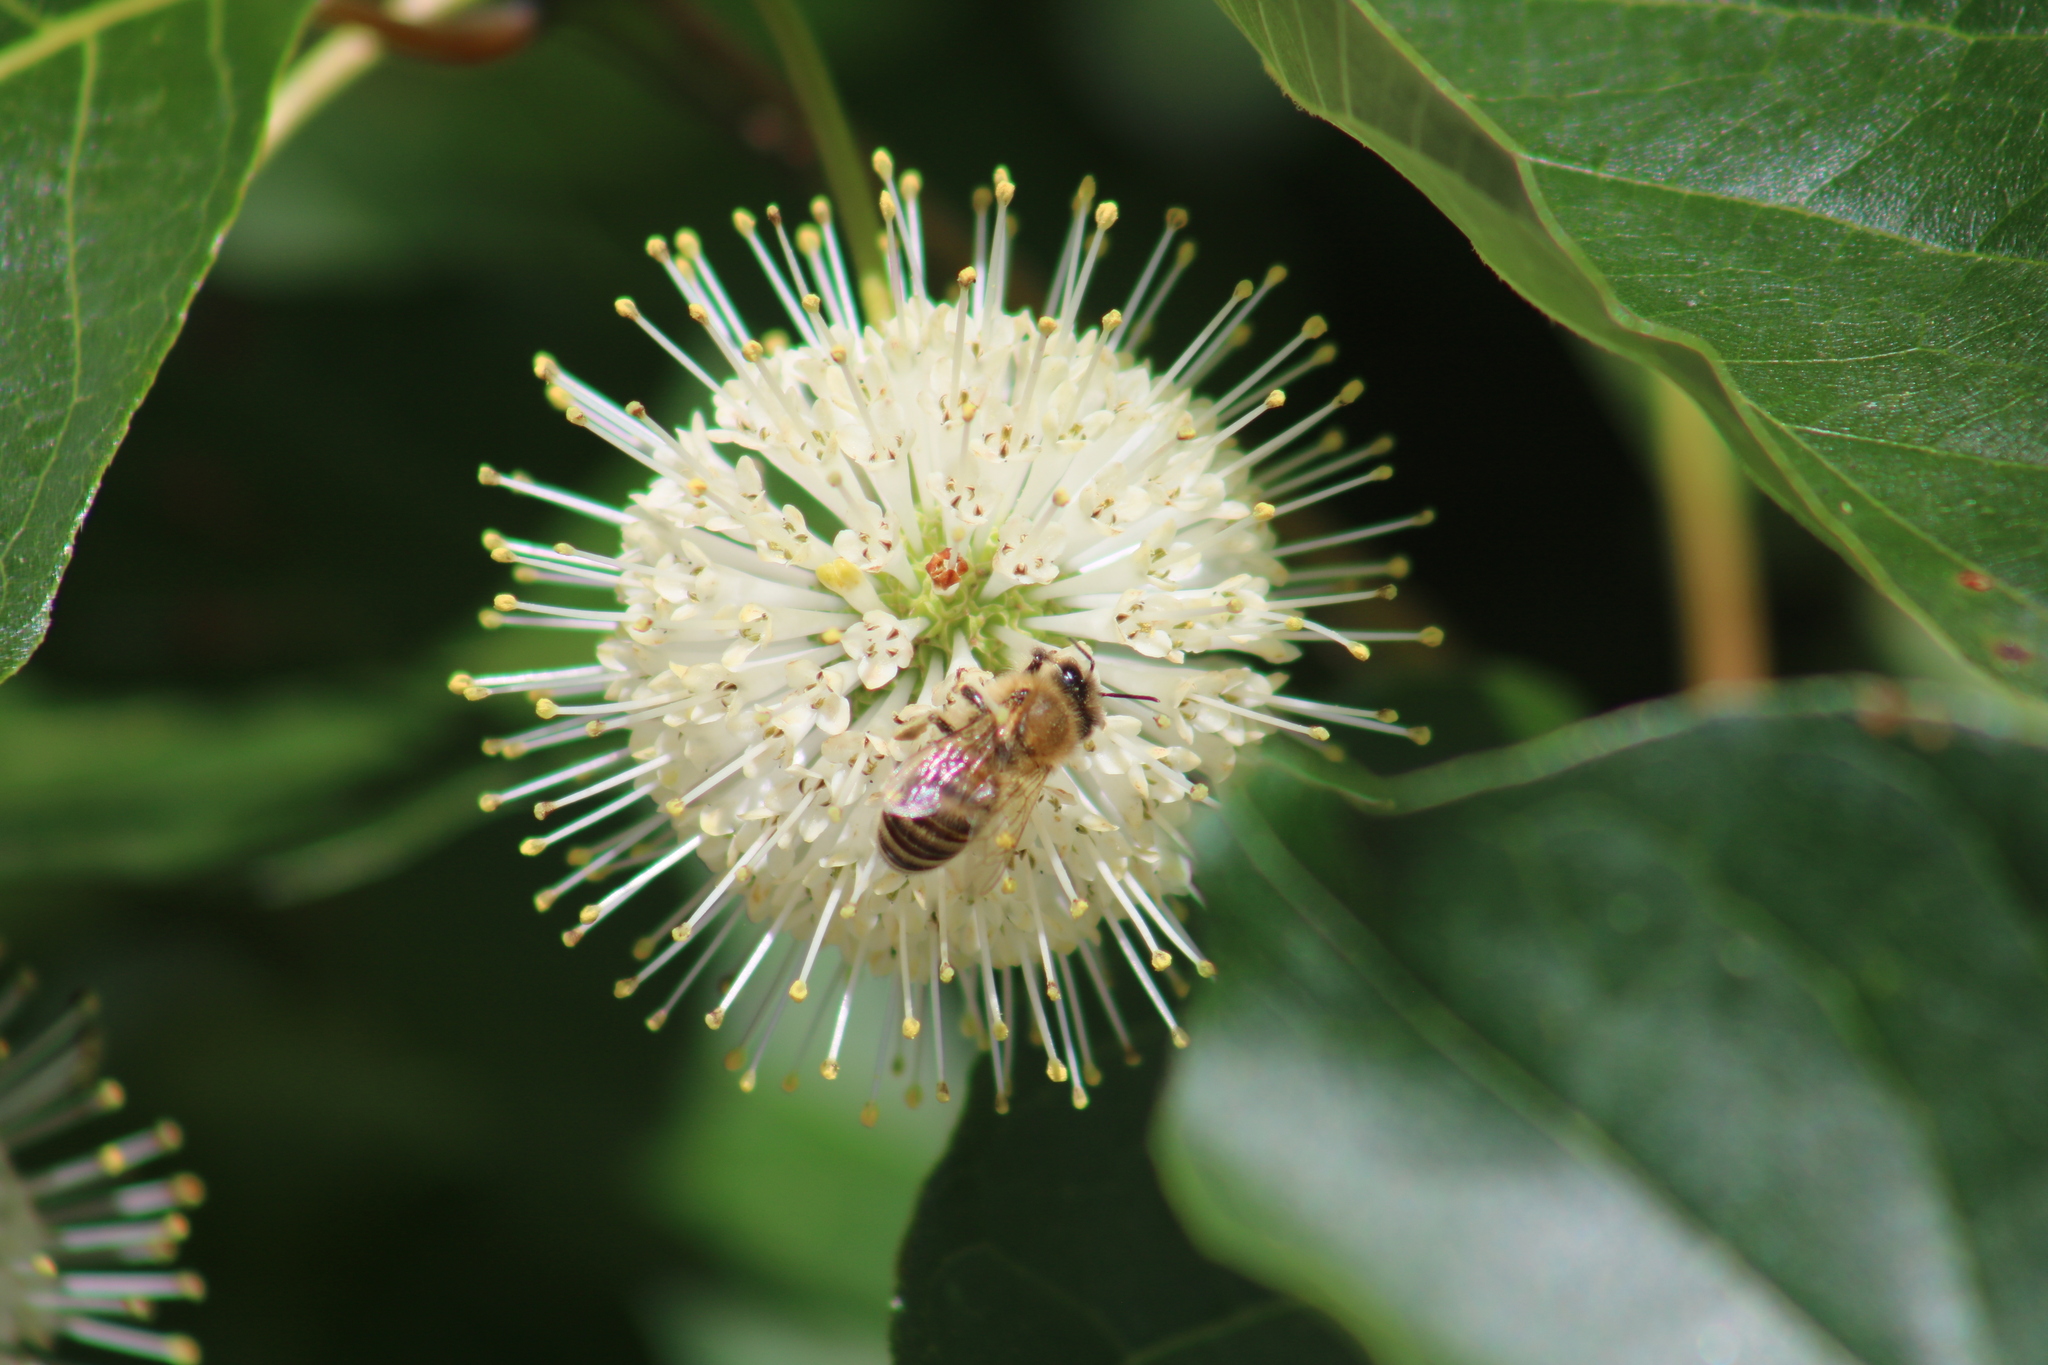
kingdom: Animalia
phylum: Arthropoda
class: Insecta
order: Hymenoptera
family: Apidae
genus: Apis
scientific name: Apis mellifera
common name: Honey bee
